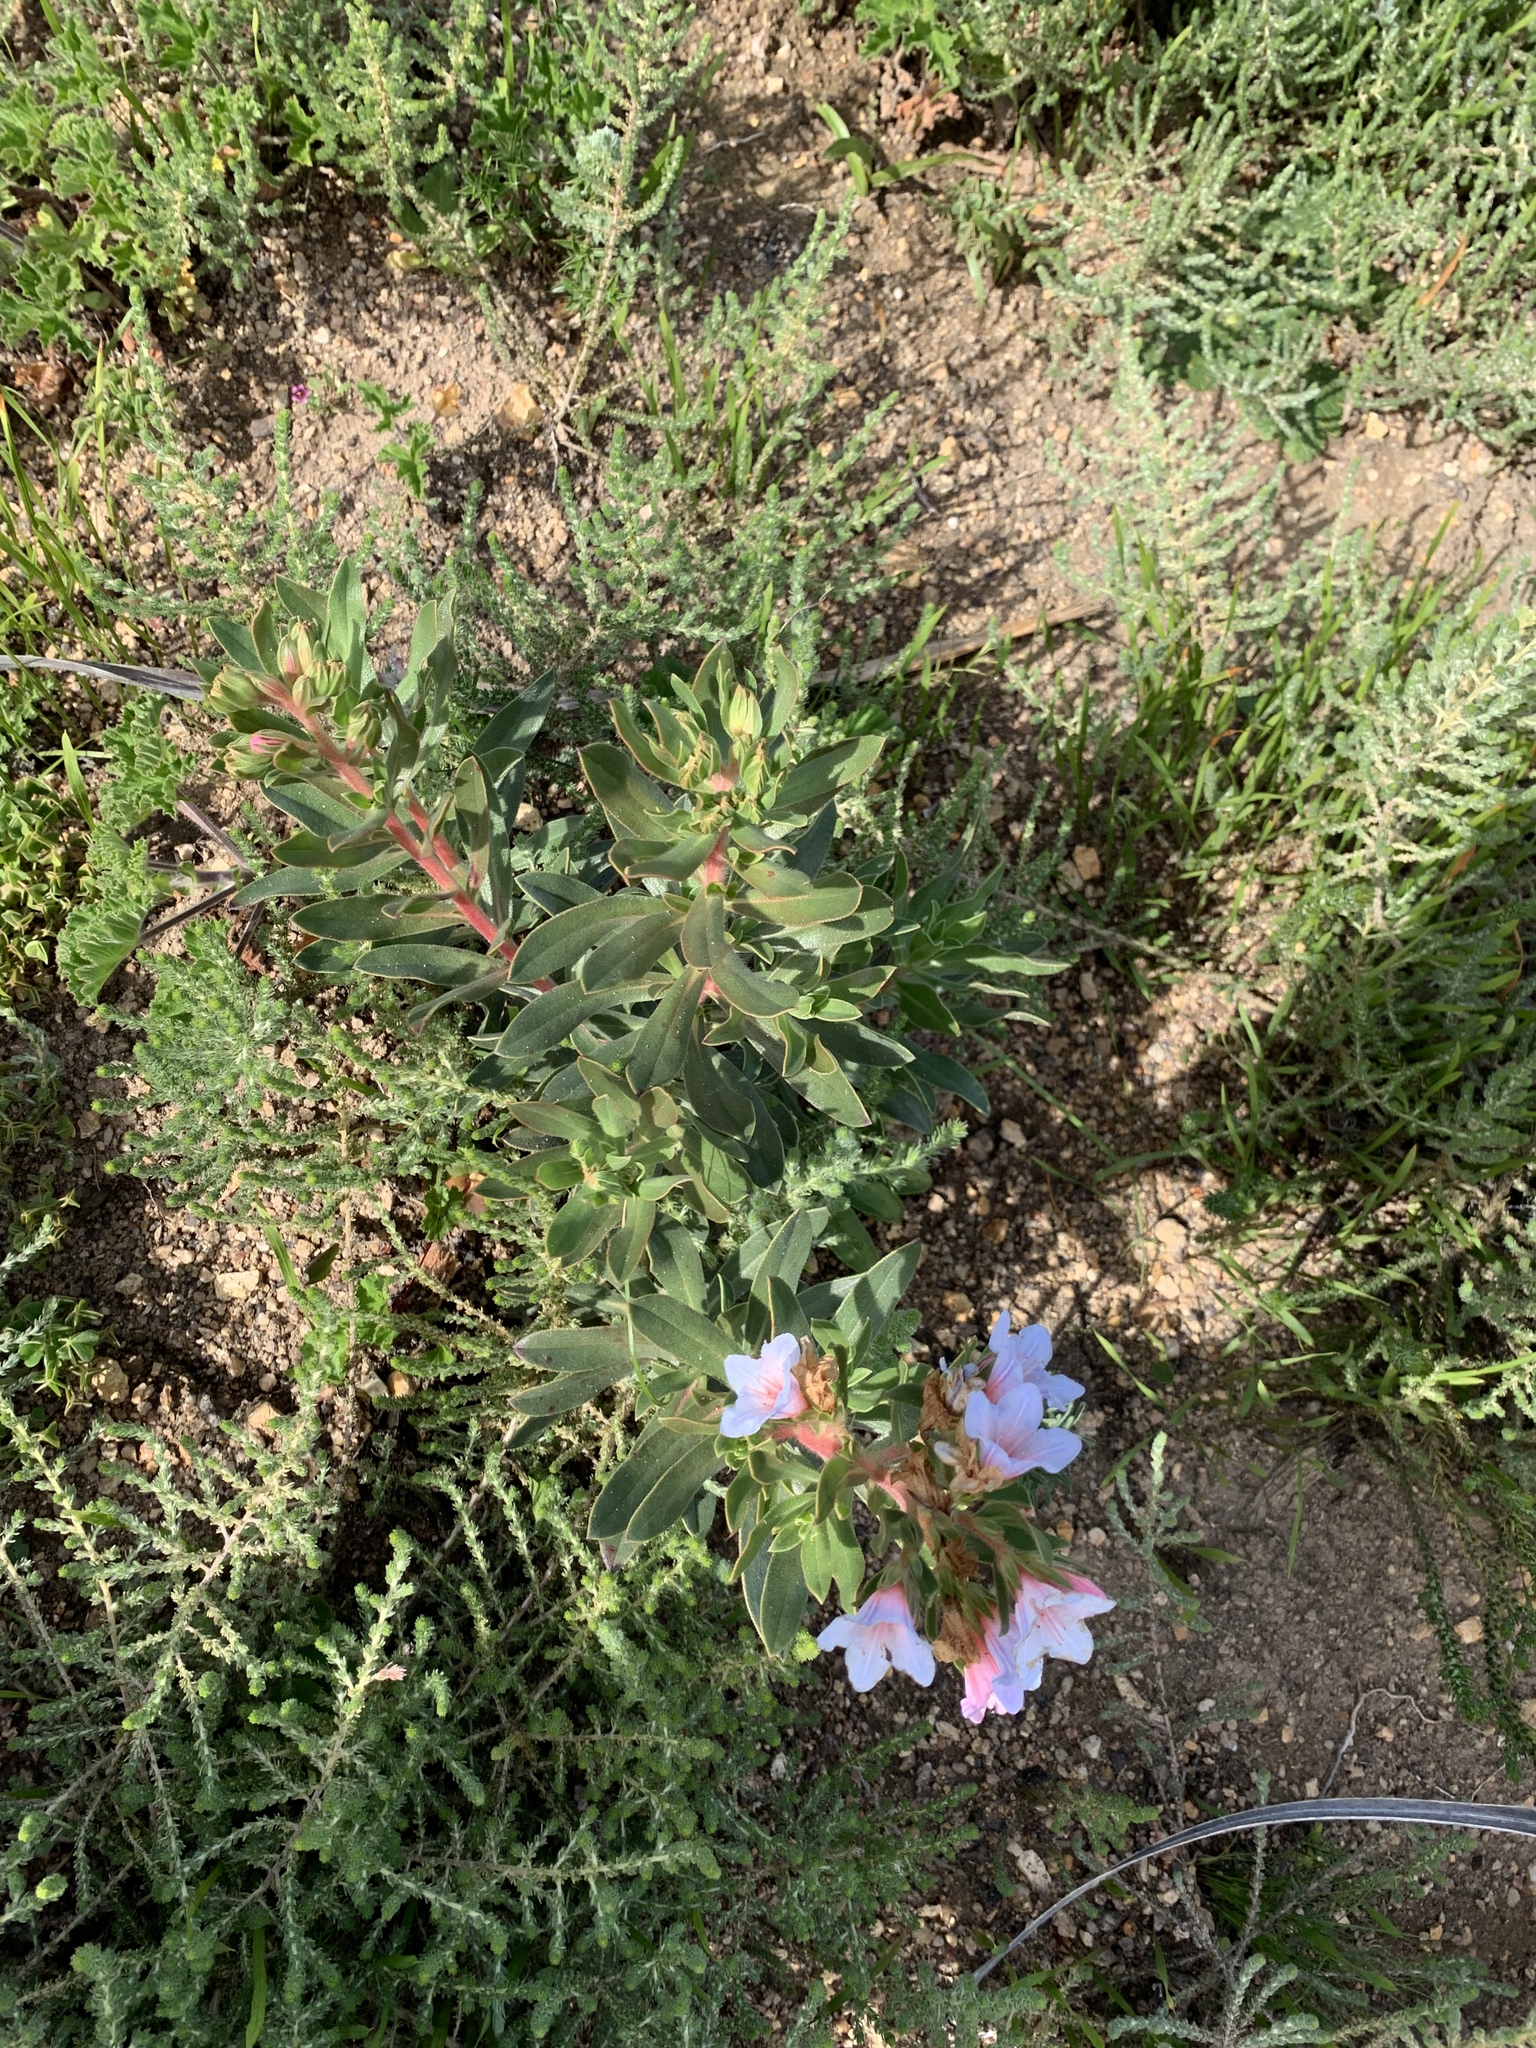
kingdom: Plantae
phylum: Tracheophyta
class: Magnoliopsida
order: Boraginales
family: Boraginaceae
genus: Lobostemon
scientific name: Lobostemon fruticosus
